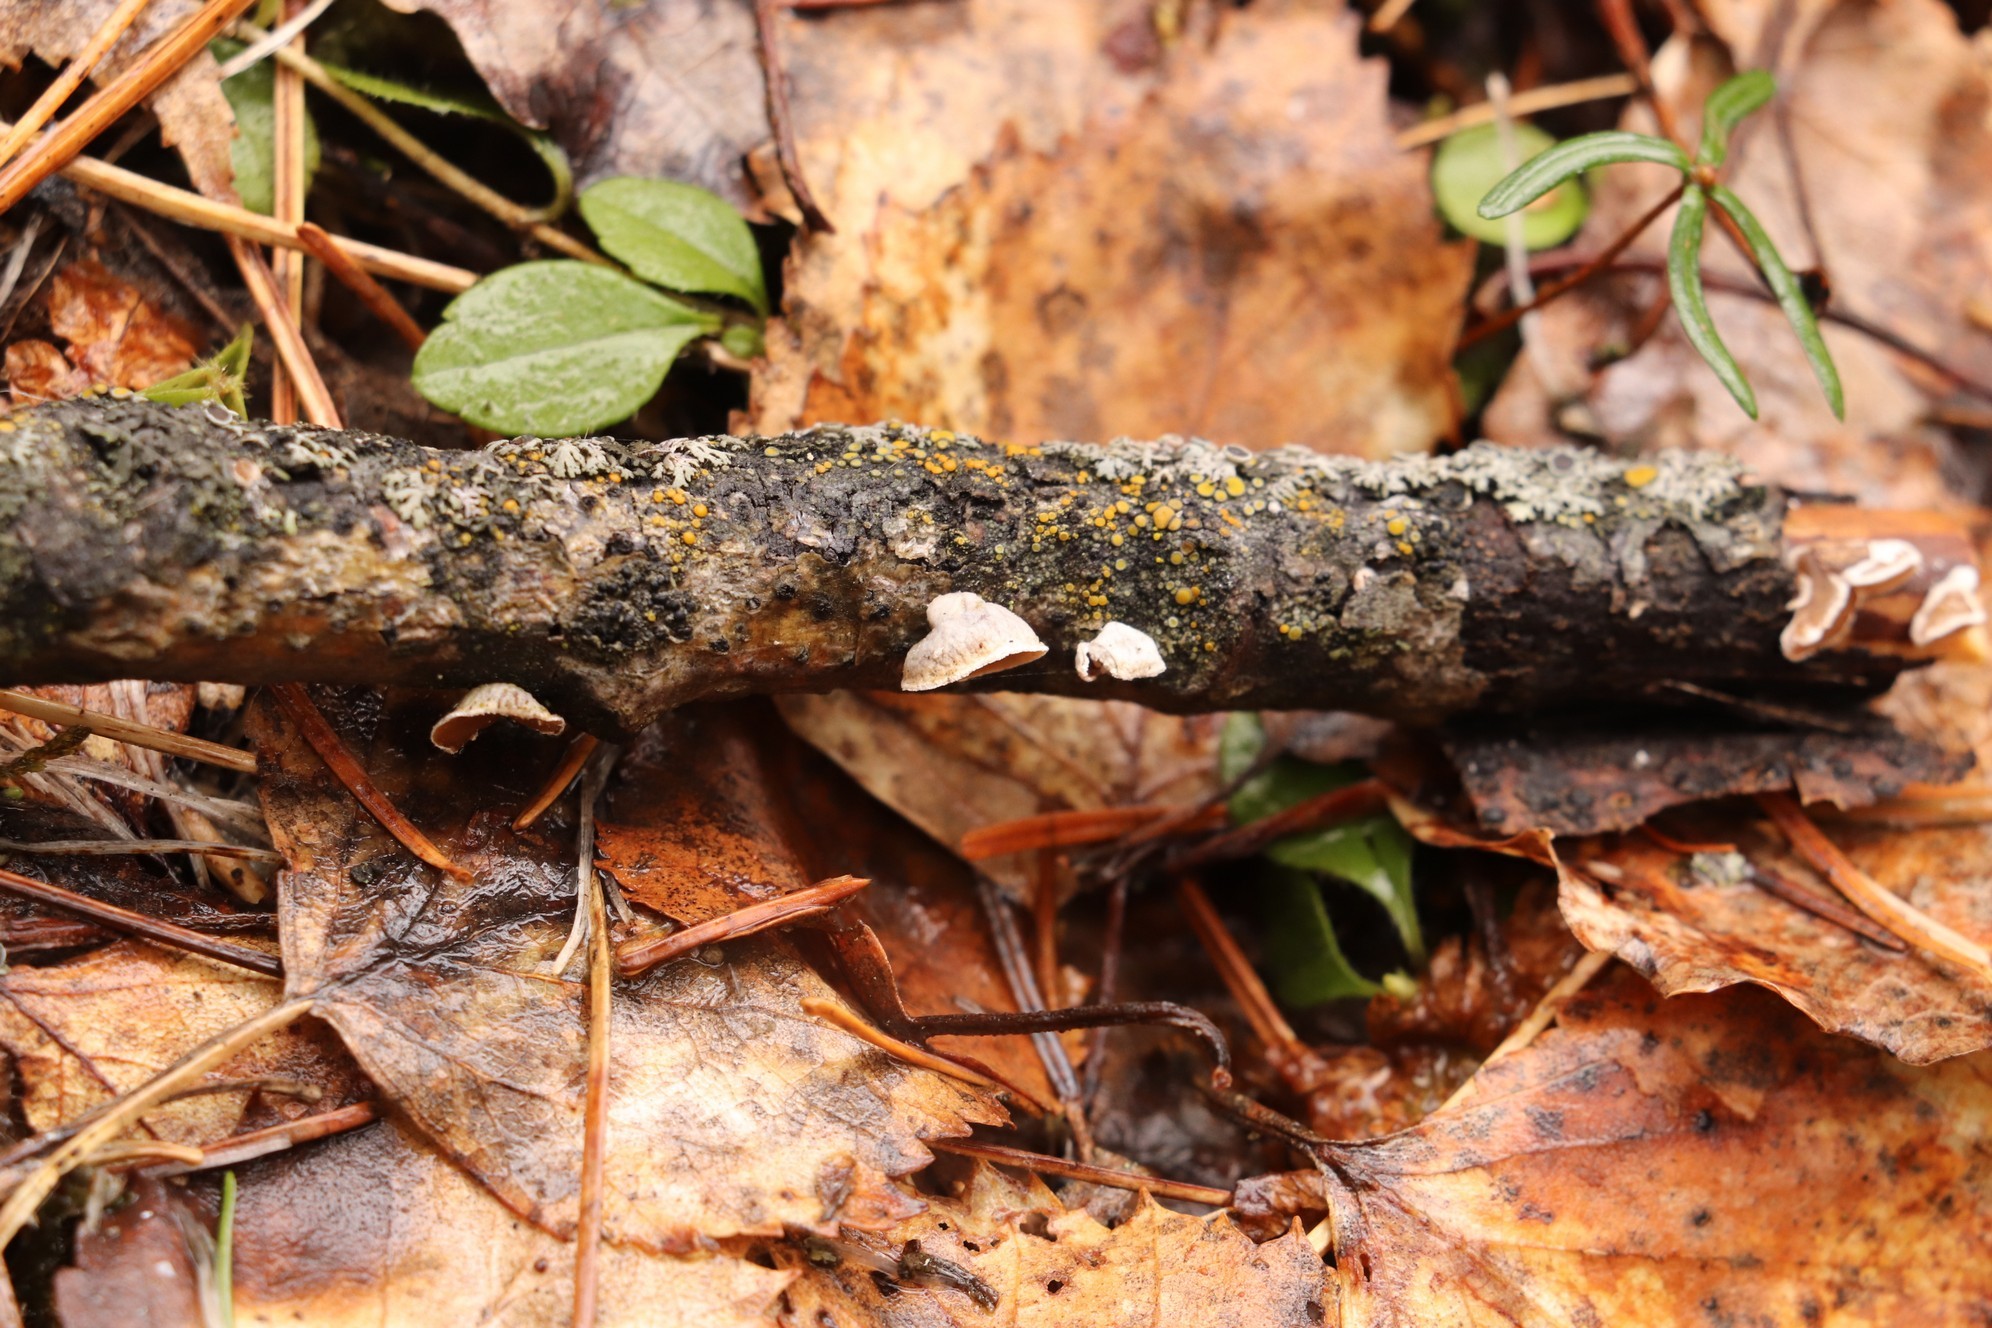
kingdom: Fungi
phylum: Basidiomycota
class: Agaricomycetes
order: Agaricales
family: Schizophyllaceae
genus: Schizophyllum
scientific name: Schizophyllum amplum
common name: Poplar bells
